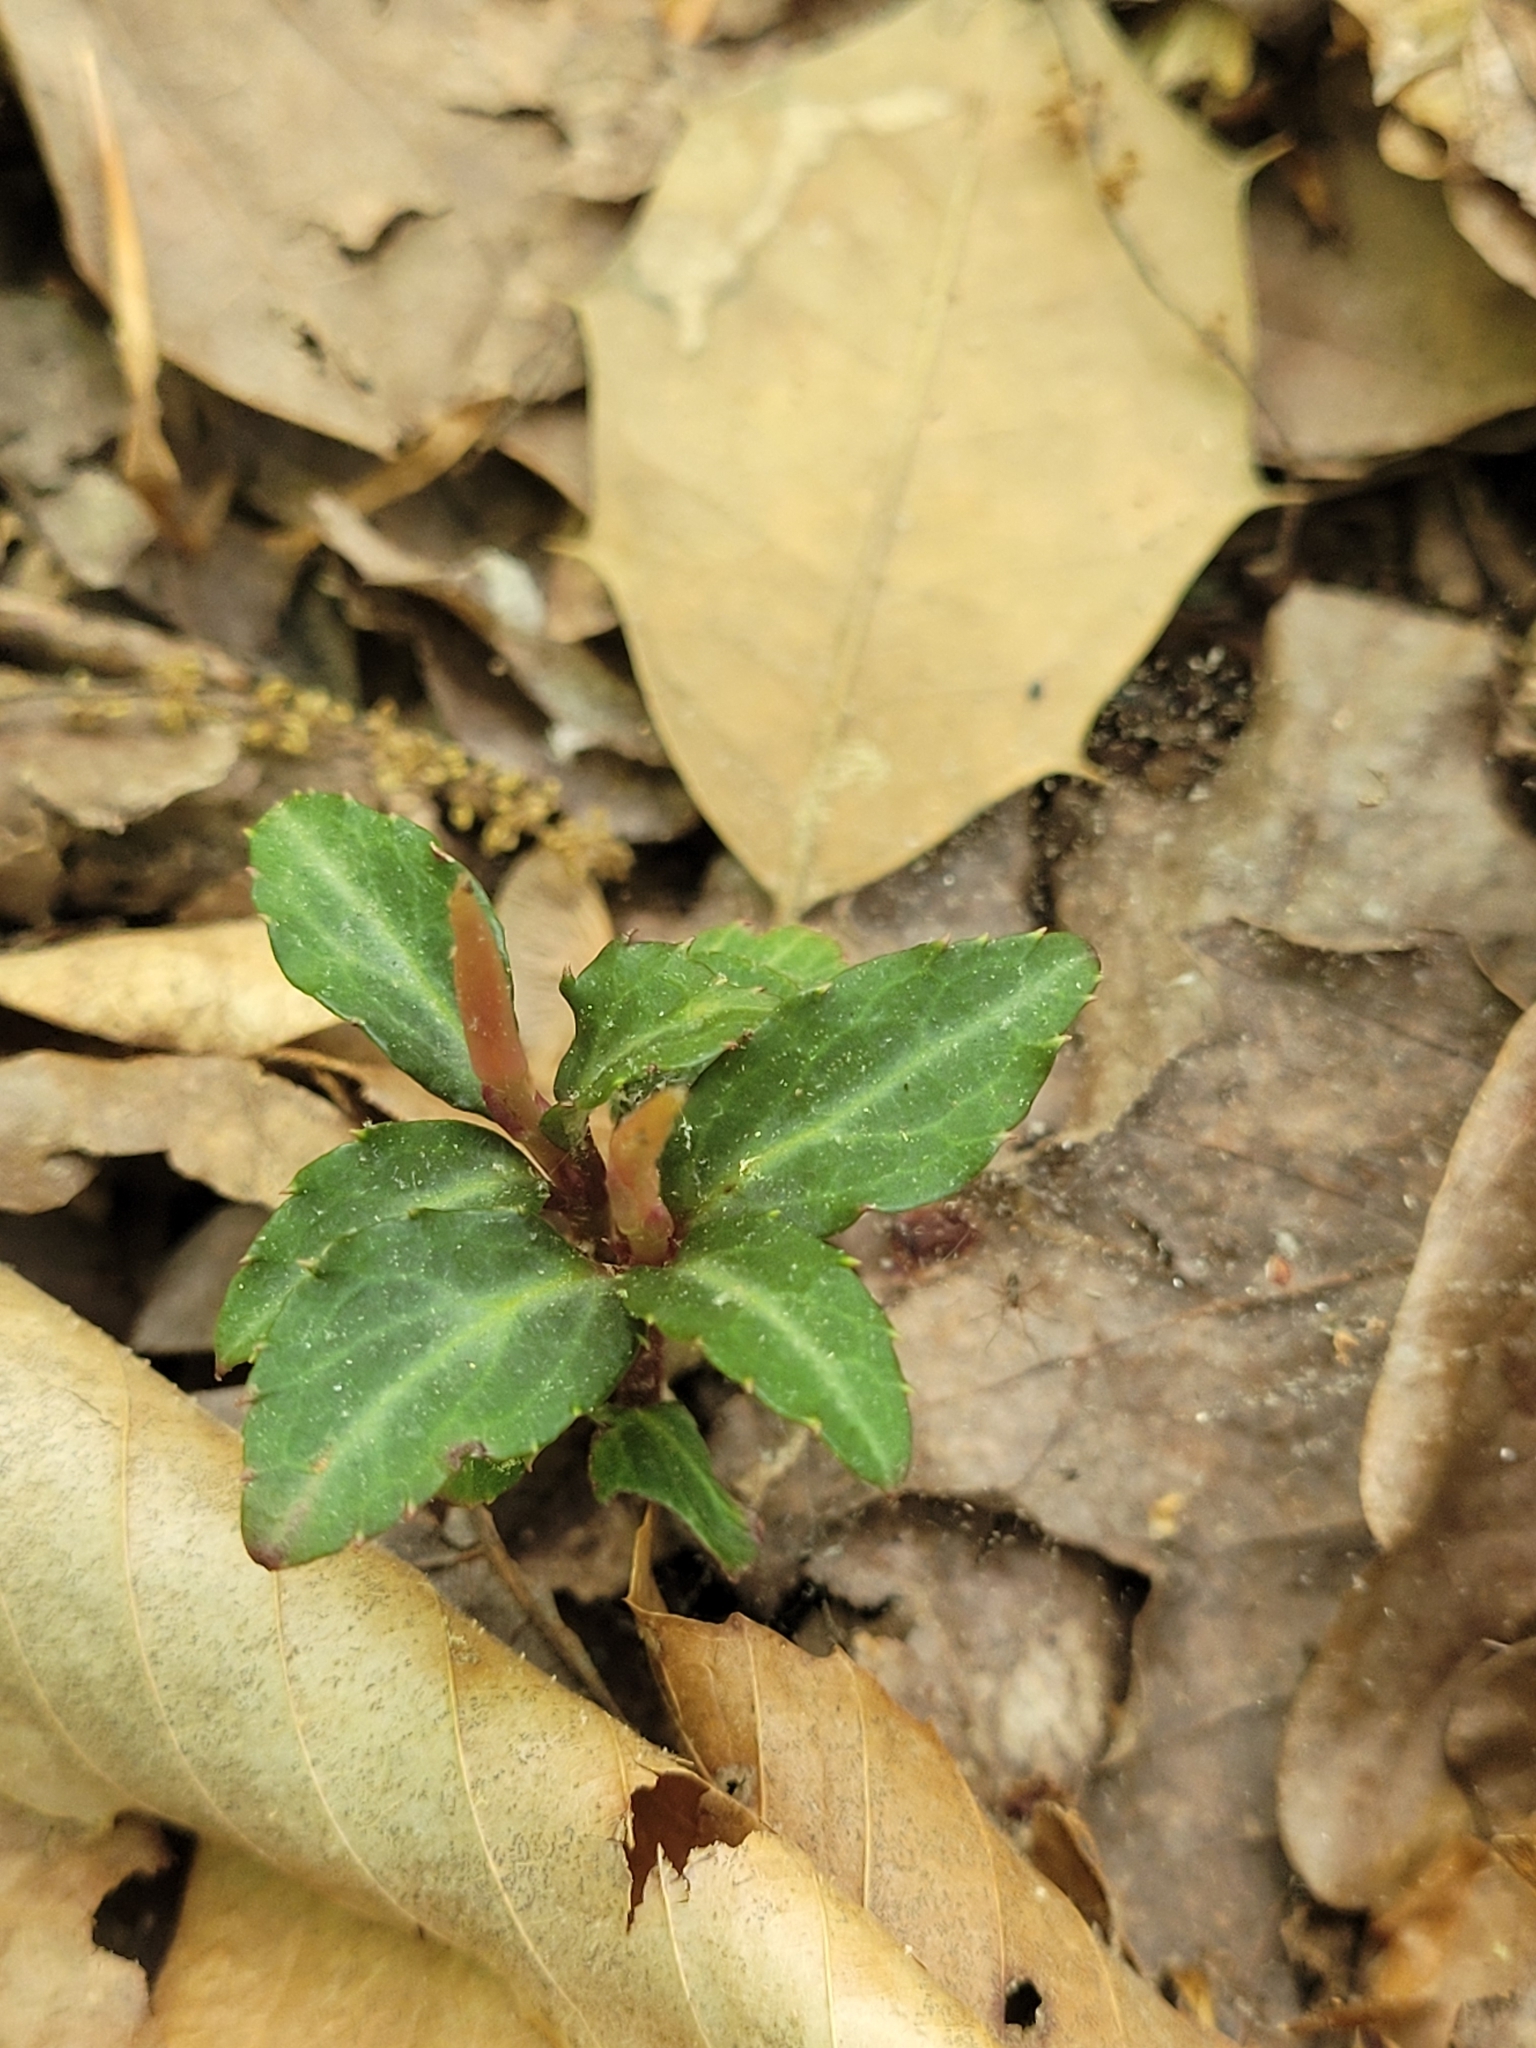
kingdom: Plantae
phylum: Tracheophyta
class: Magnoliopsida
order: Ericales
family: Ericaceae
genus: Chimaphila
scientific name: Chimaphila maculata
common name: Spotted pipsissewa
